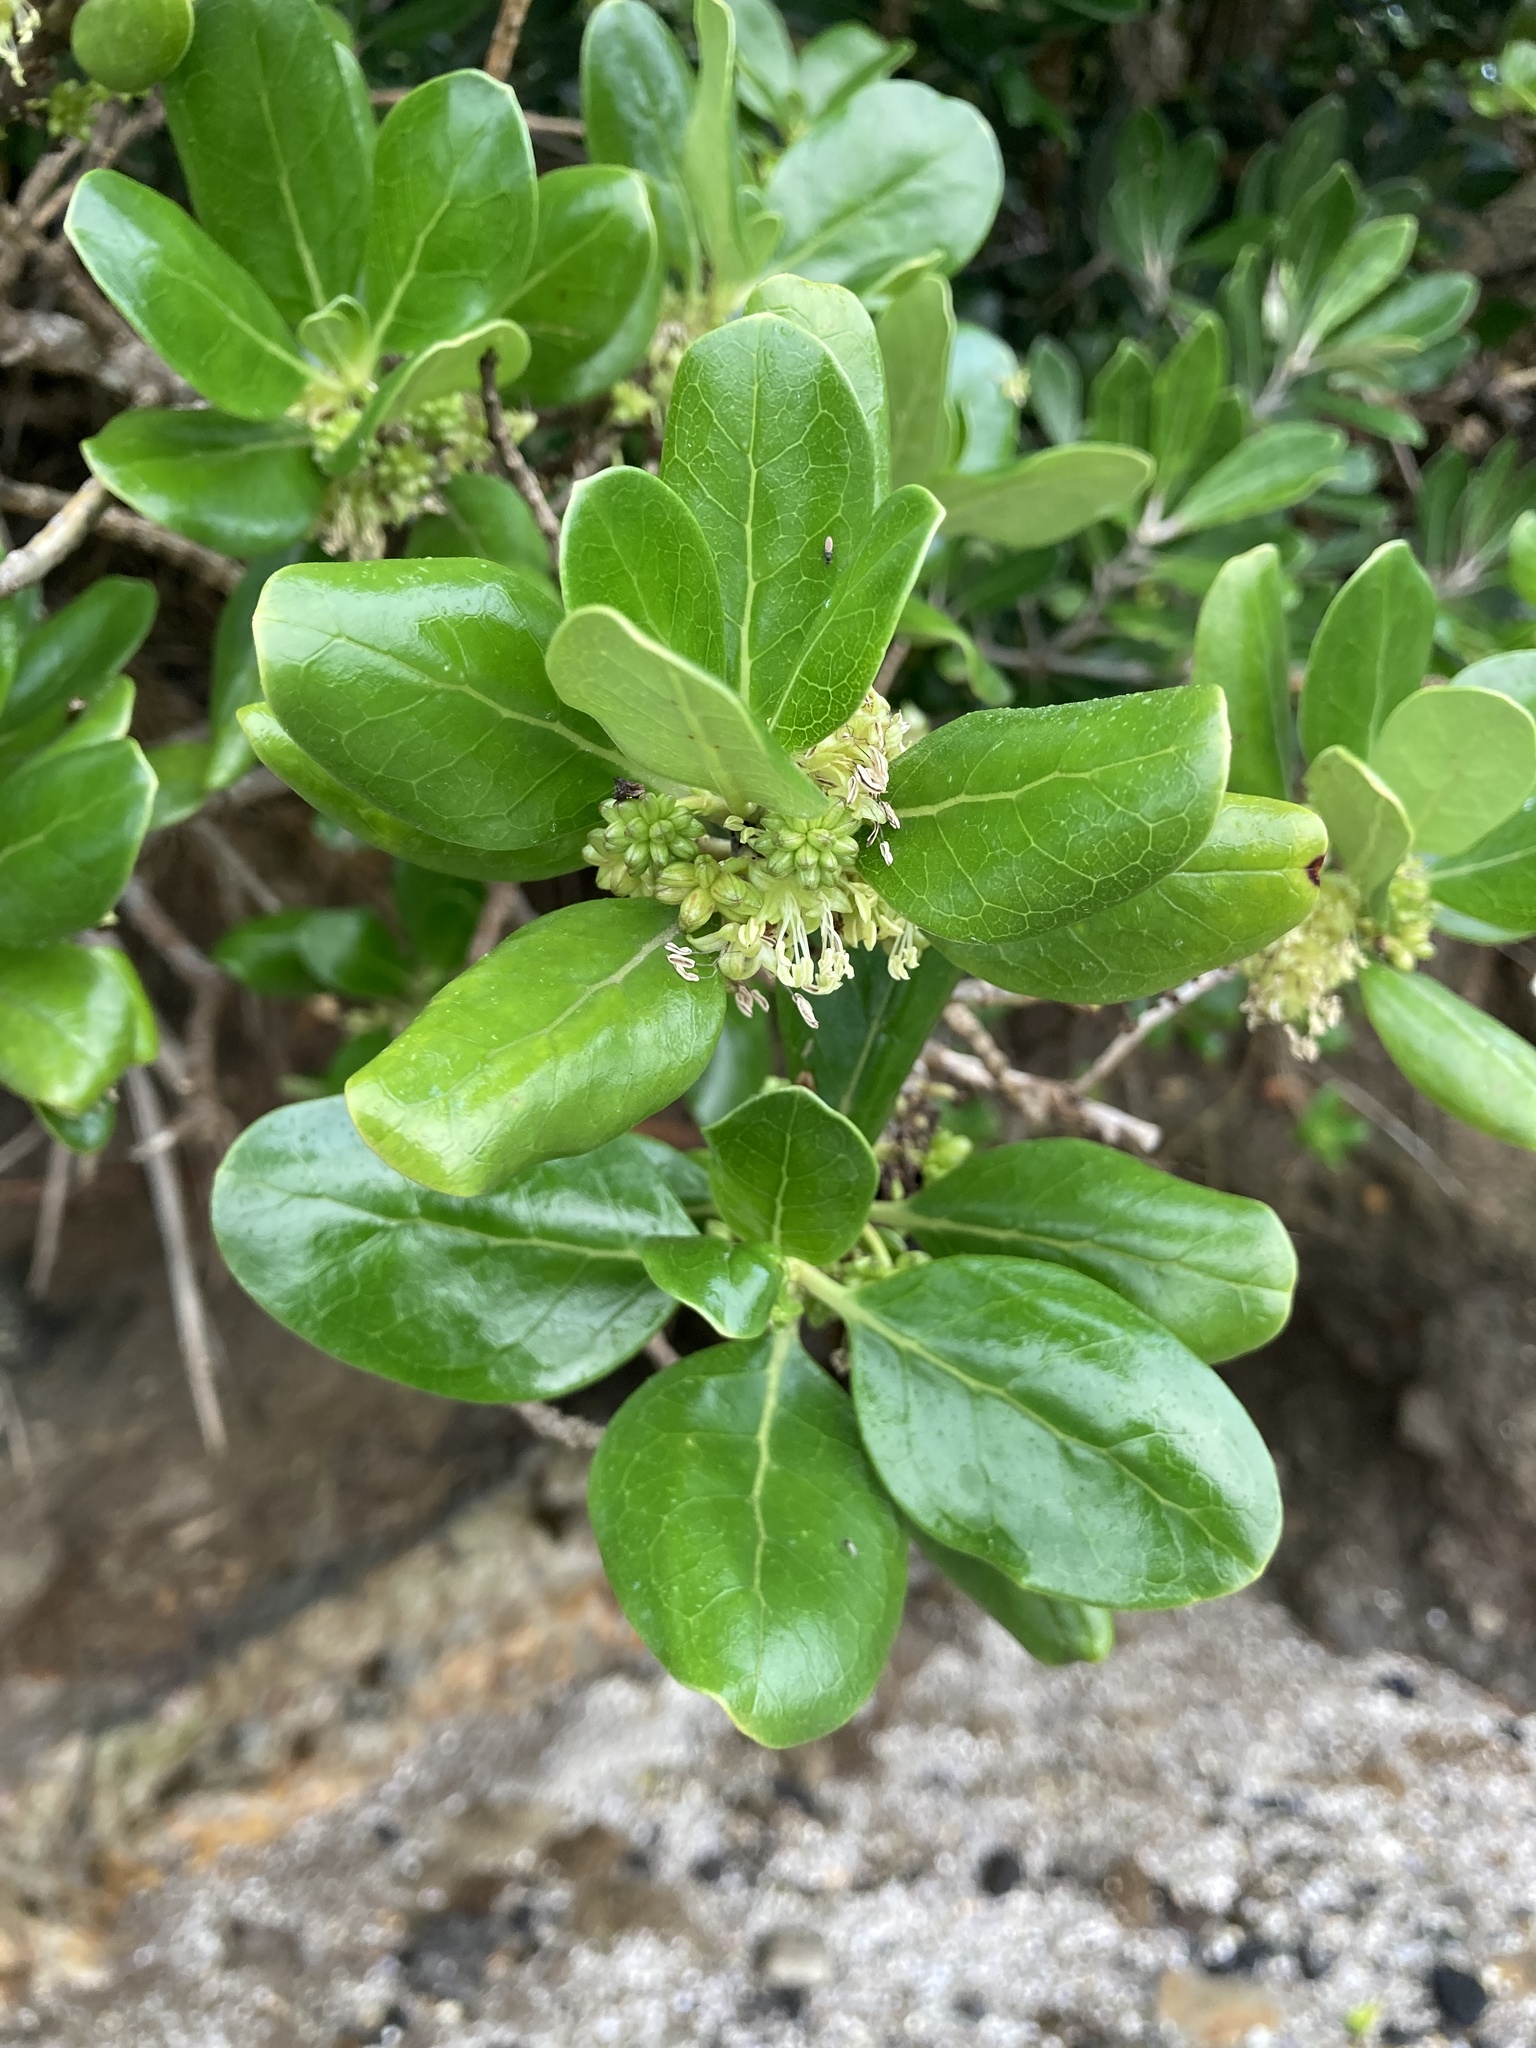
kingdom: Plantae
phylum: Tracheophyta
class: Magnoliopsida
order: Gentianales
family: Rubiaceae
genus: Coprosma
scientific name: Coprosma repens
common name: Tree bedstraw
